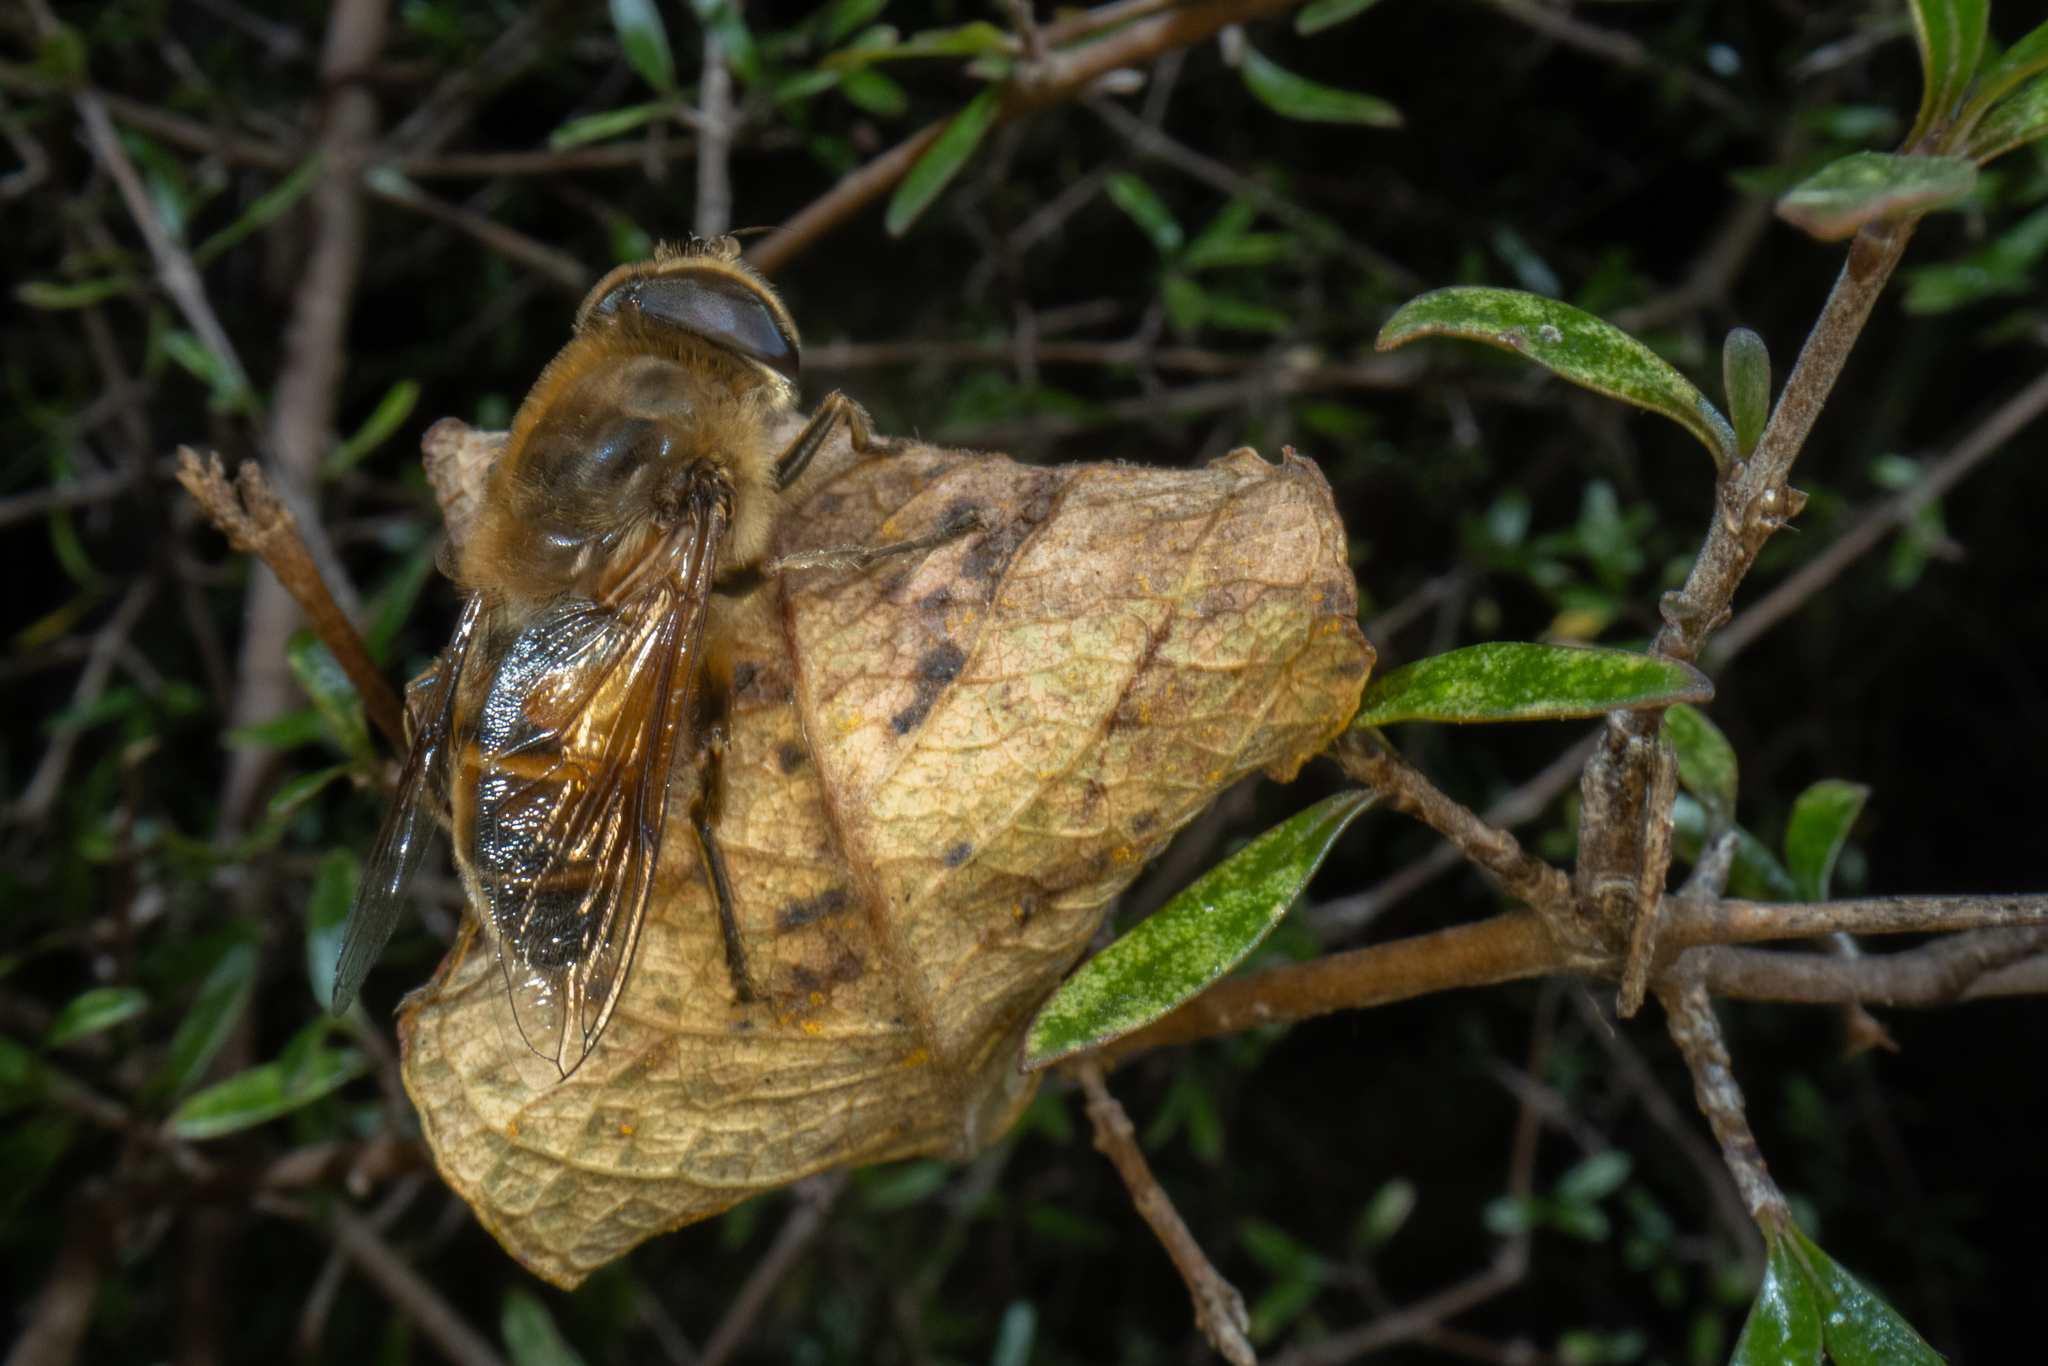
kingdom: Animalia
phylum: Arthropoda
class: Insecta
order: Diptera
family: Syrphidae
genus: Eristalis
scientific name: Eristalis tenax
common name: Drone fly
